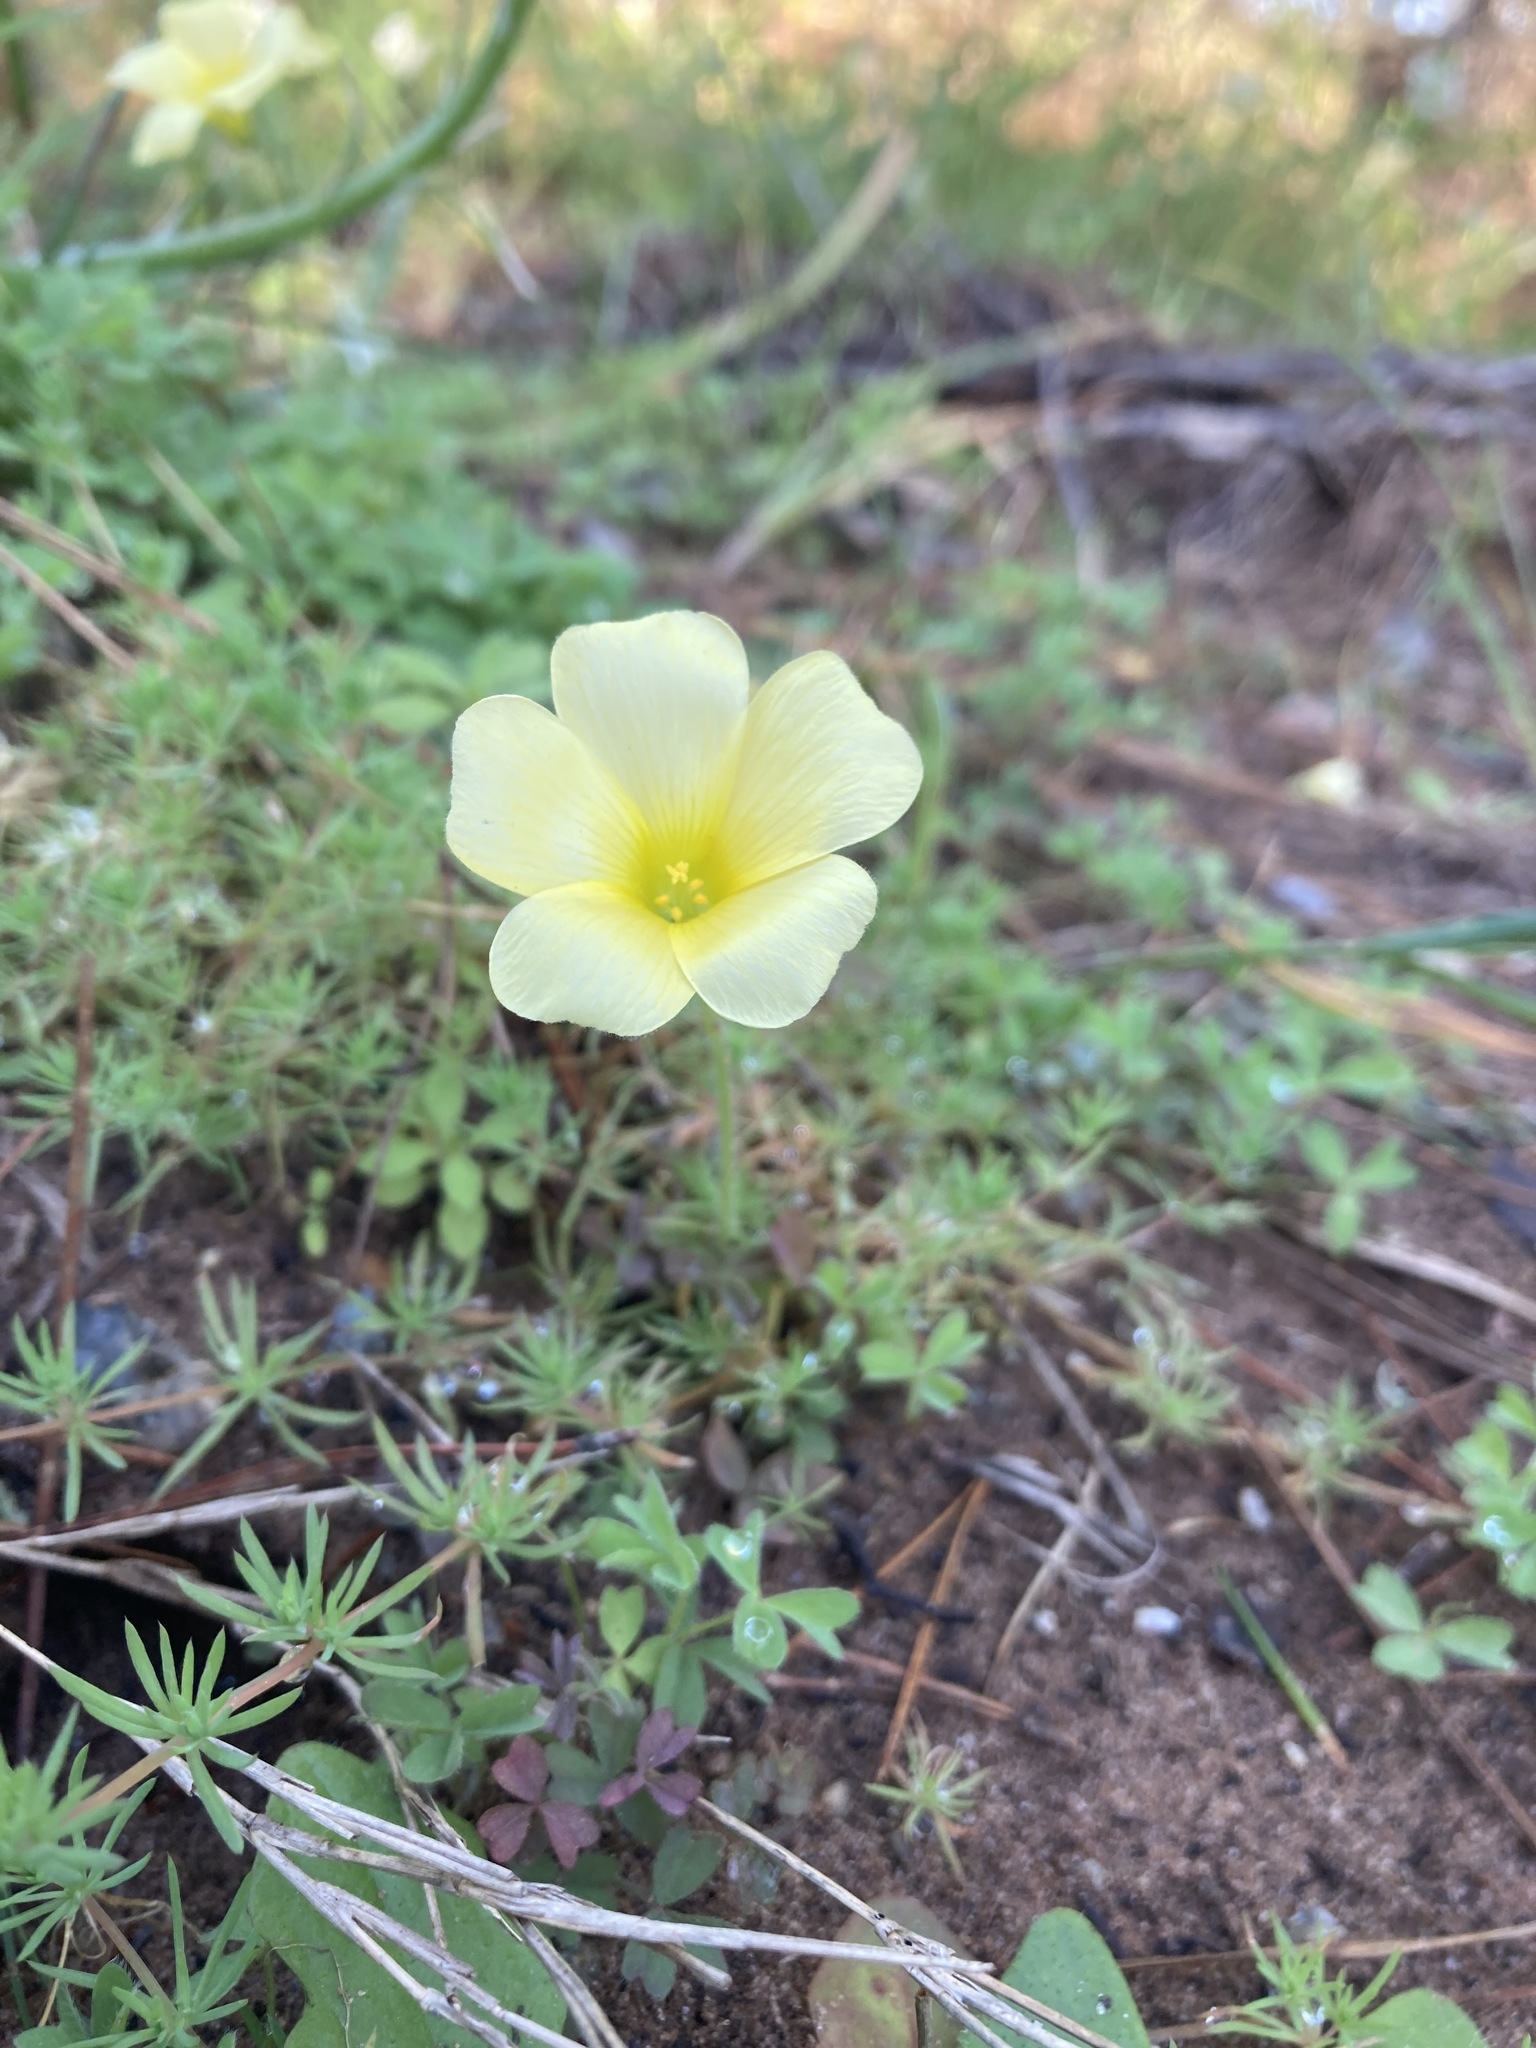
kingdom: Plantae
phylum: Tracheophyta
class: Magnoliopsida
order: Oxalidales
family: Oxalidaceae
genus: Oxalis
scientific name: Oxalis obtusa
